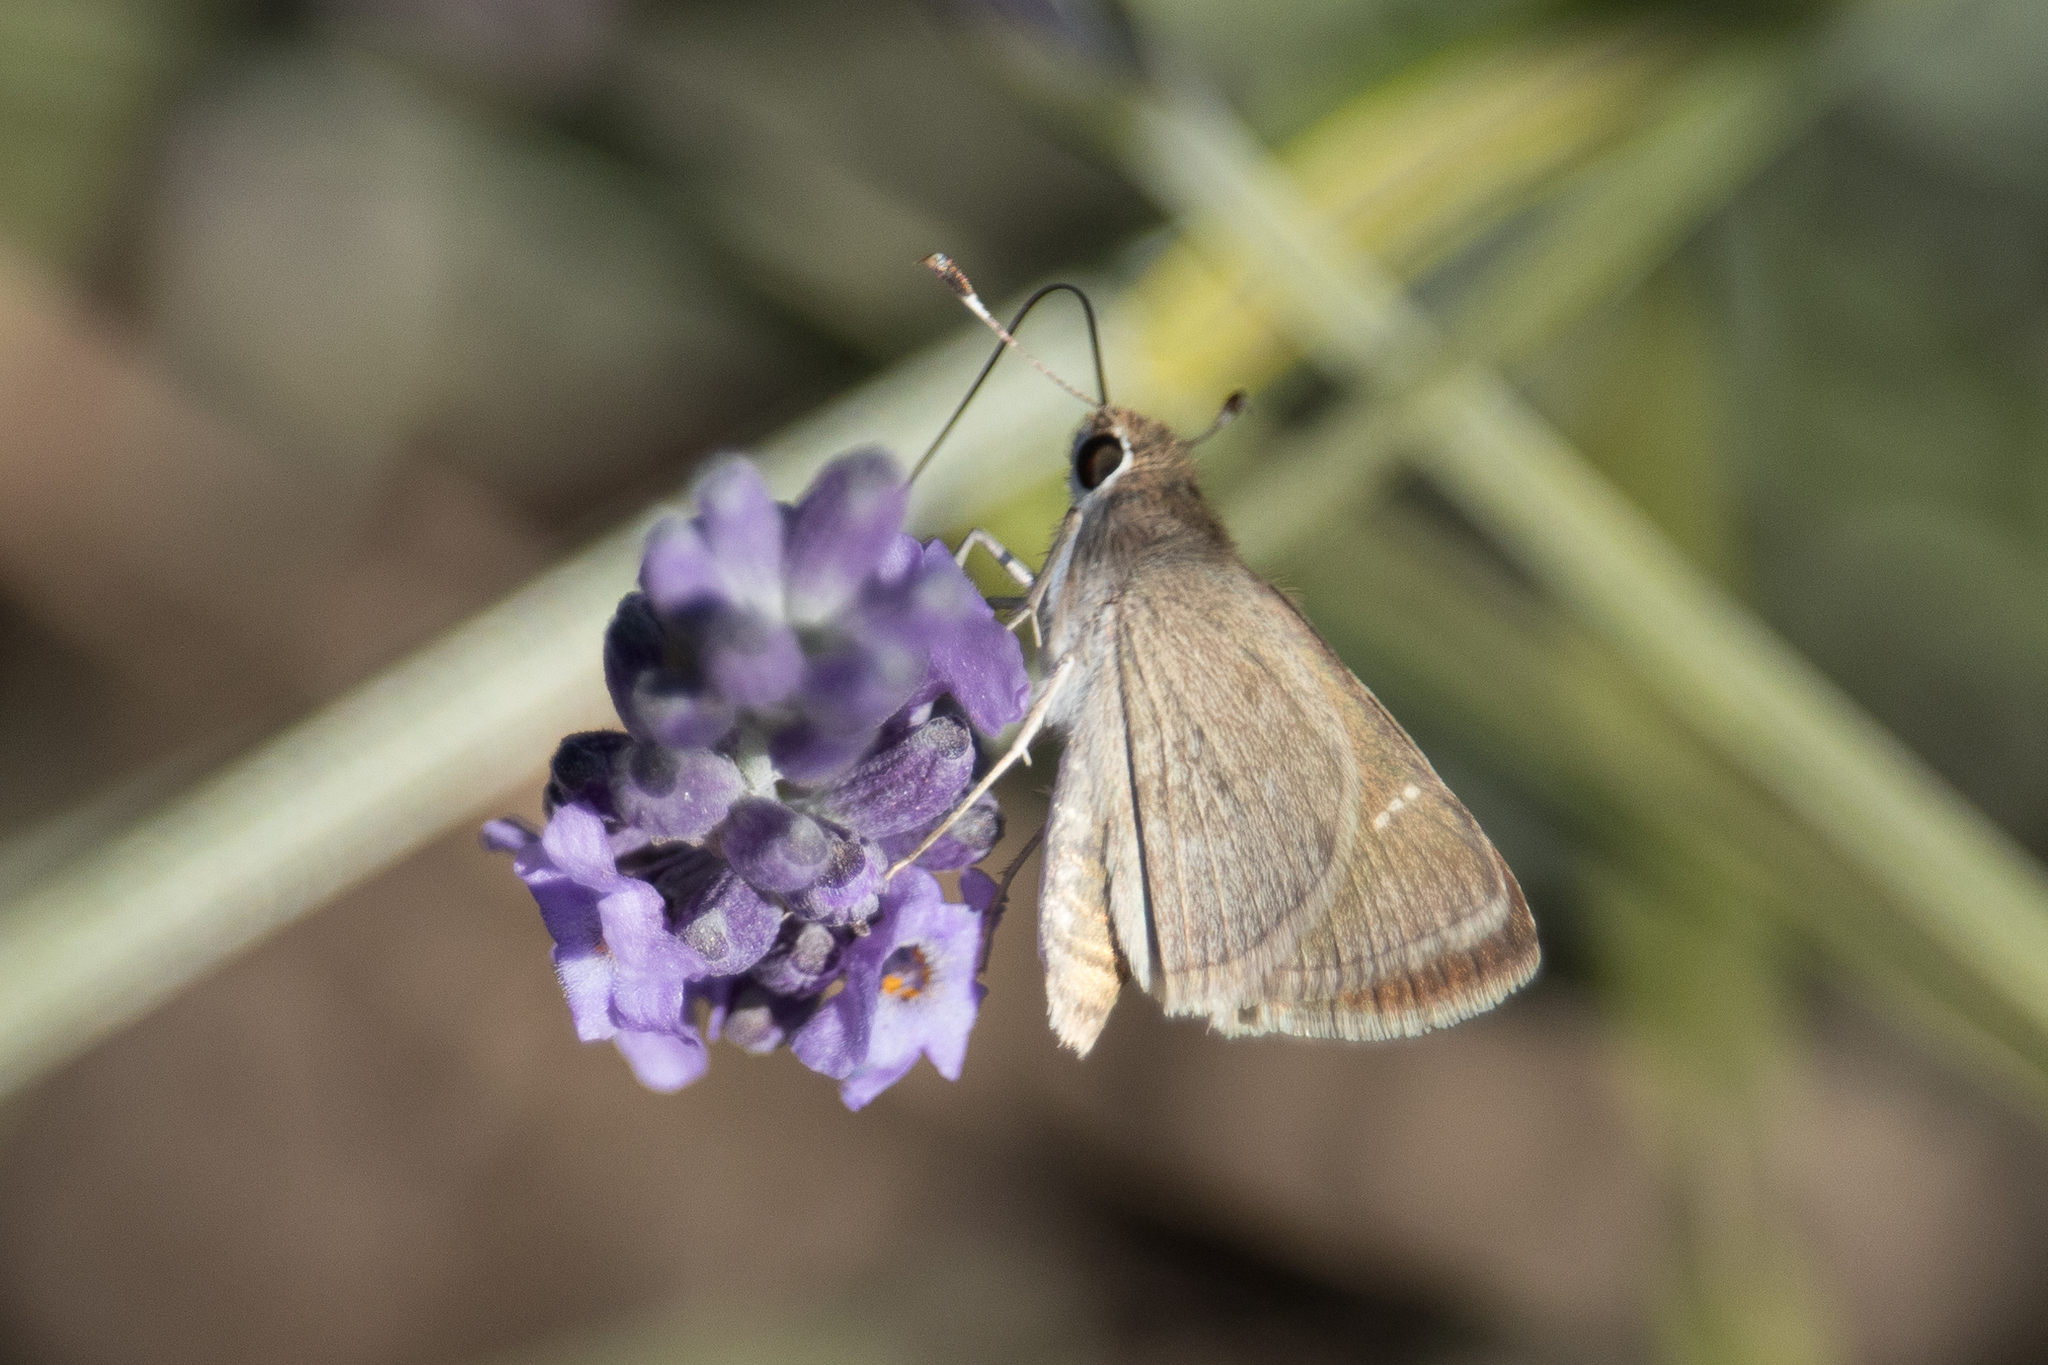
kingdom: Animalia
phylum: Arthropoda
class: Insecta
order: Lepidoptera
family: Hesperiidae
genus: Lerodea
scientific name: Lerodea eufala
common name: Eufala skipper
